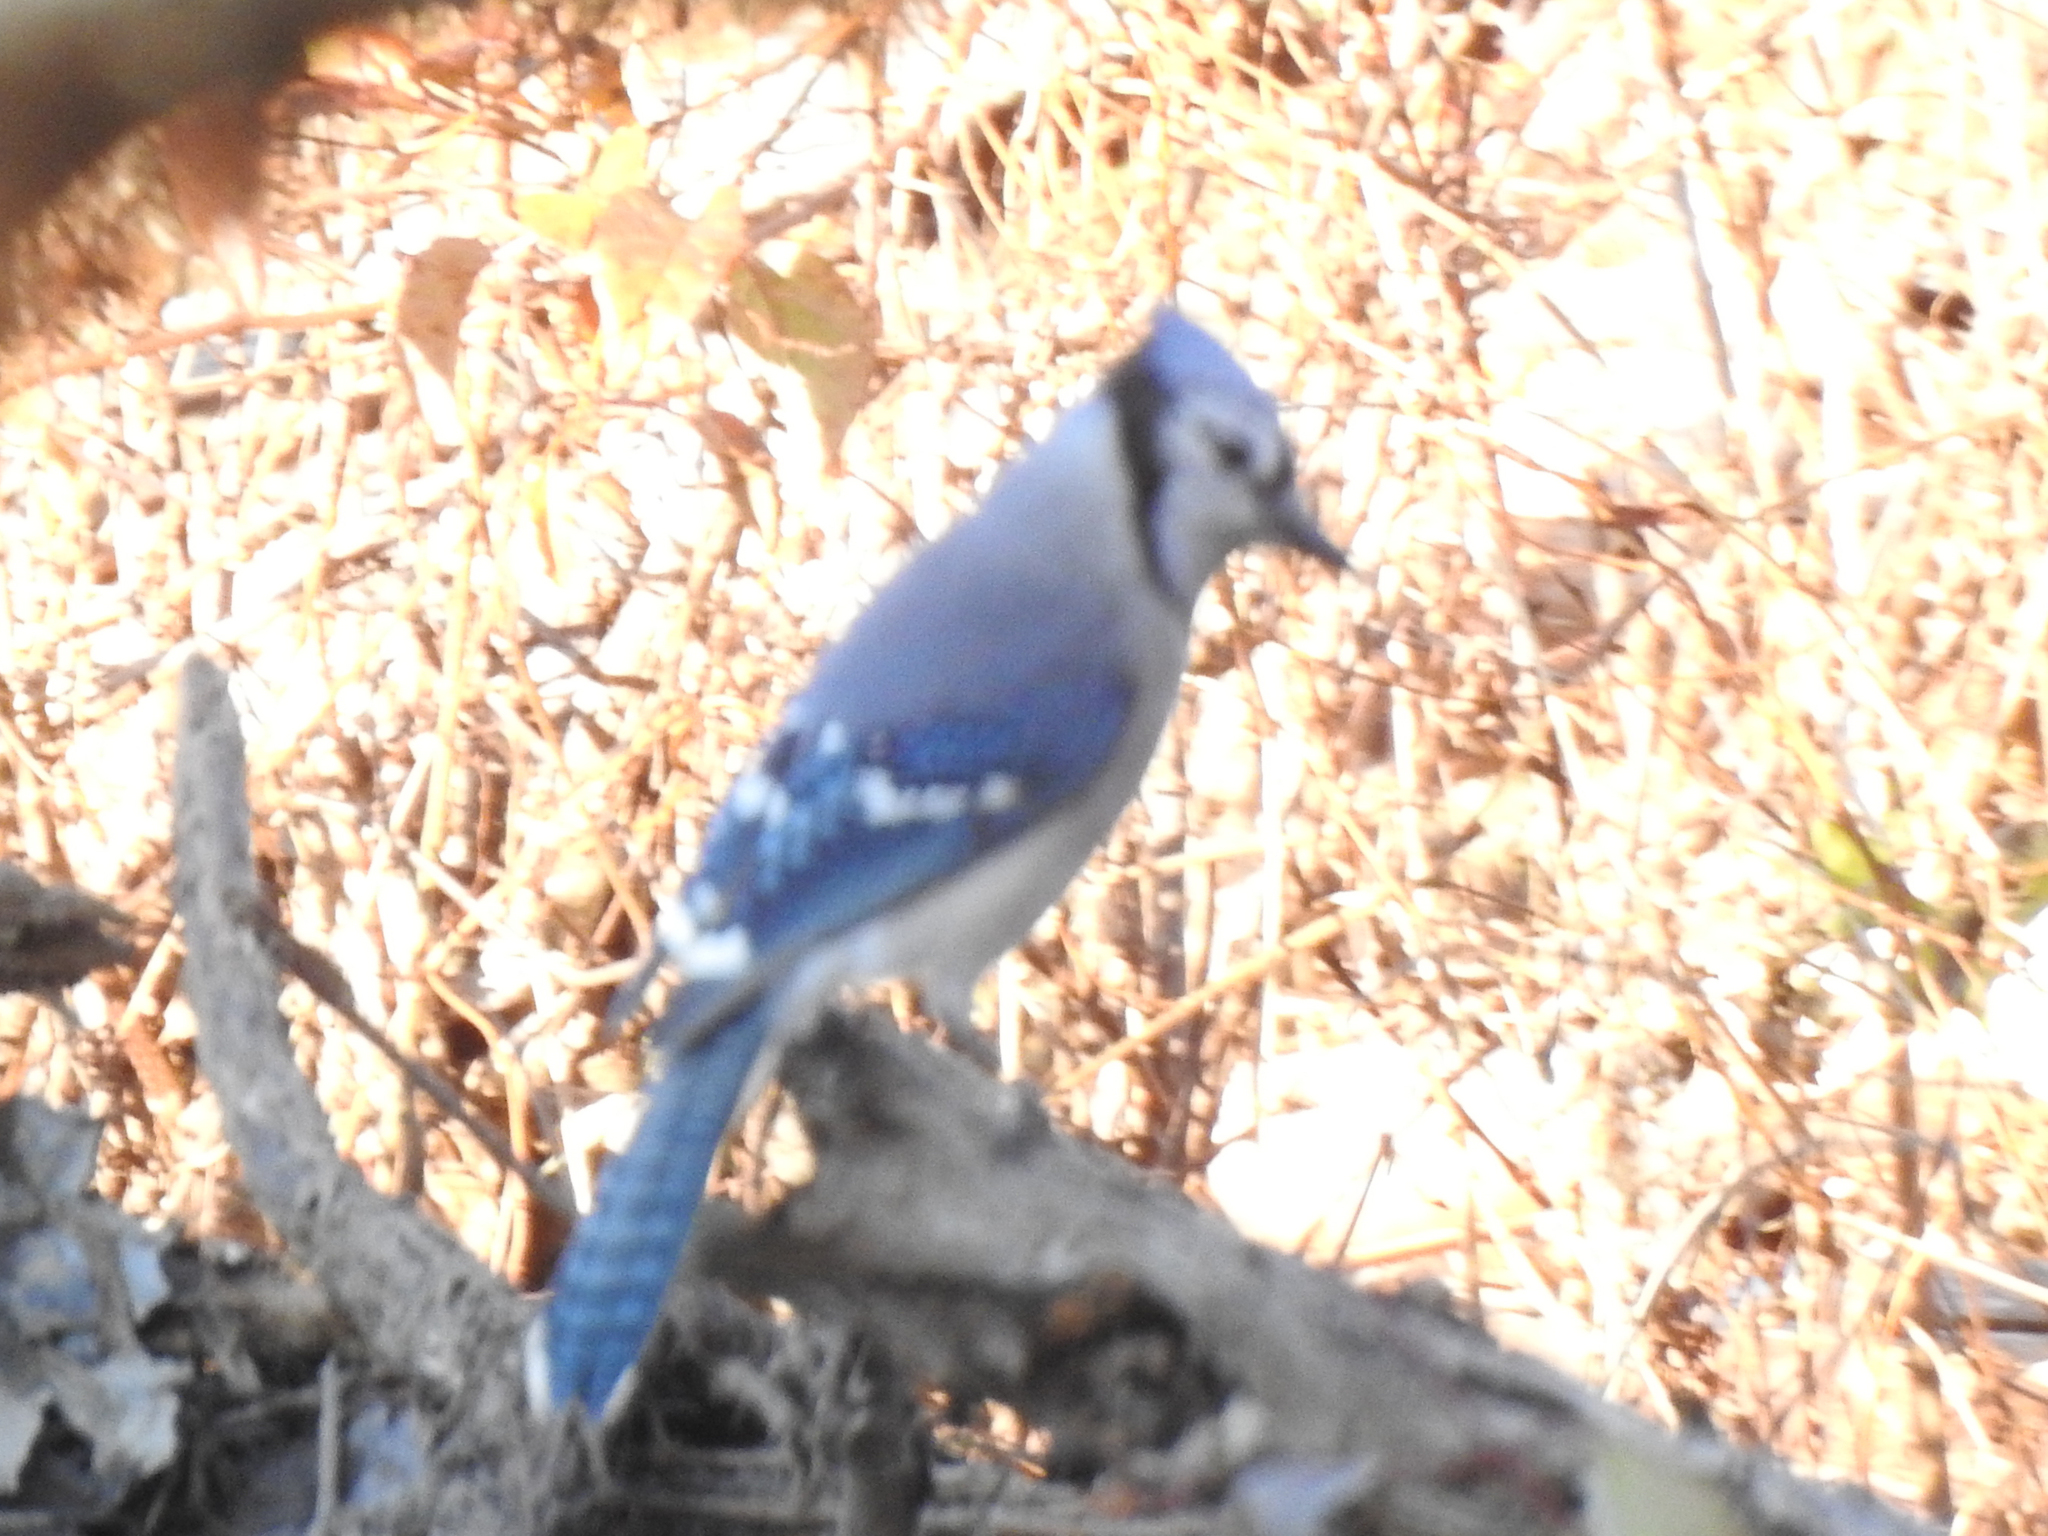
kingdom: Animalia
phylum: Chordata
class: Aves
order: Passeriformes
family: Corvidae
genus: Cyanocitta
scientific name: Cyanocitta cristata
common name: Blue jay
